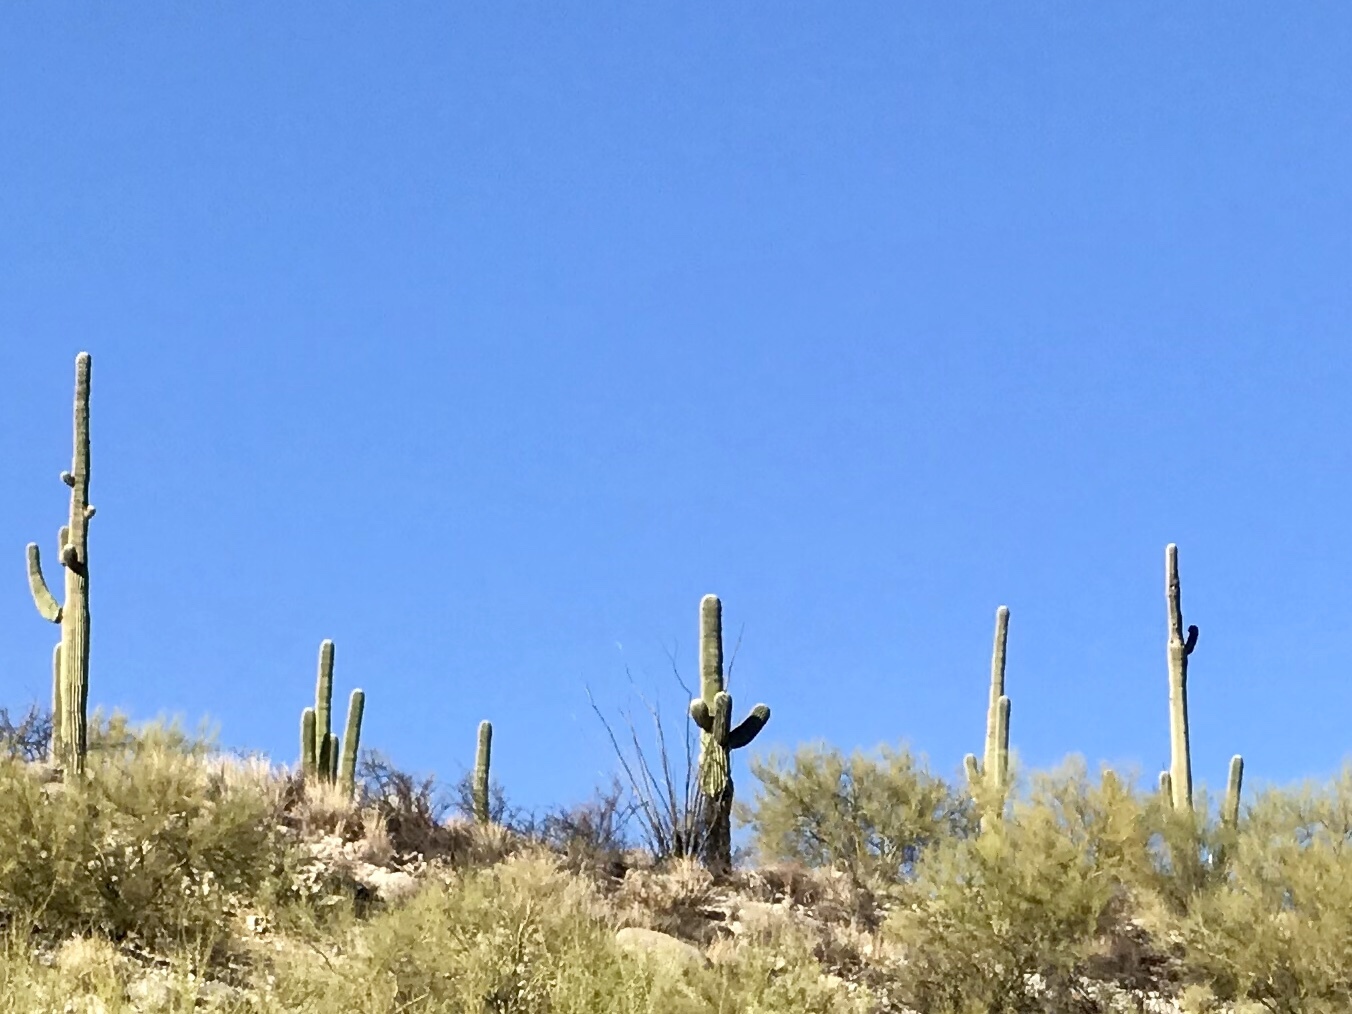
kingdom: Plantae
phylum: Tracheophyta
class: Magnoliopsida
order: Caryophyllales
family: Cactaceae
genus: Carnegiea
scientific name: Carnegiea gigantea
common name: Saguaro
